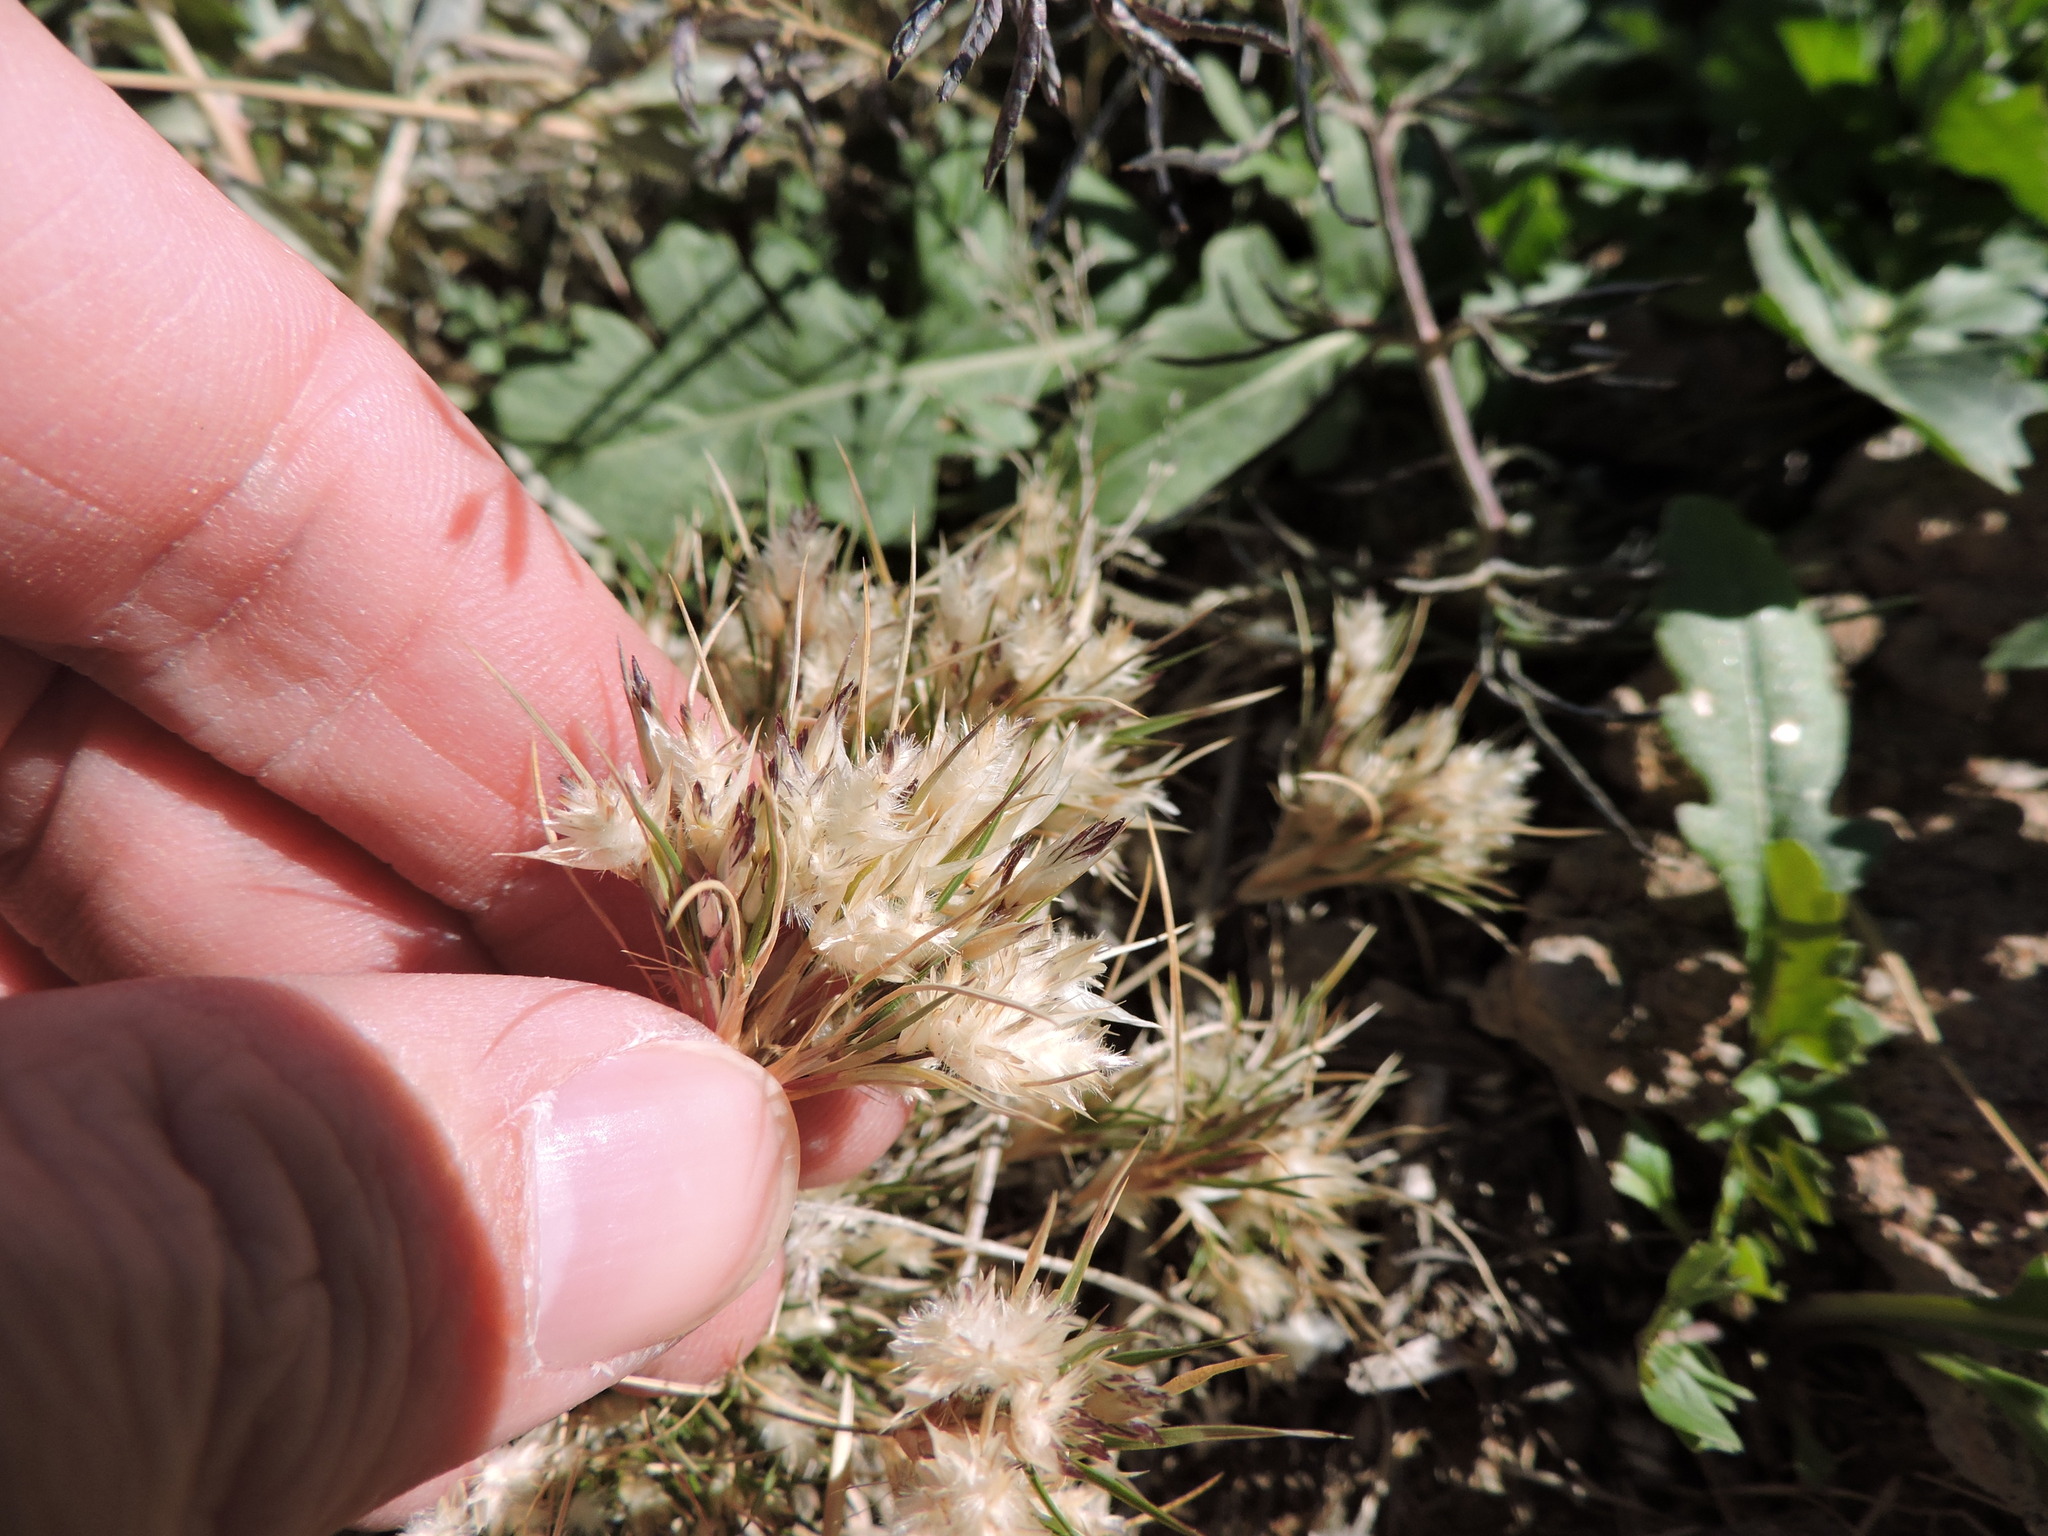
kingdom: Plantae
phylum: Tracheophyta
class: Liliopsida
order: Poales
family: Poaceae
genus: Dasyochloa
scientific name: Dasyochloa pulchella
